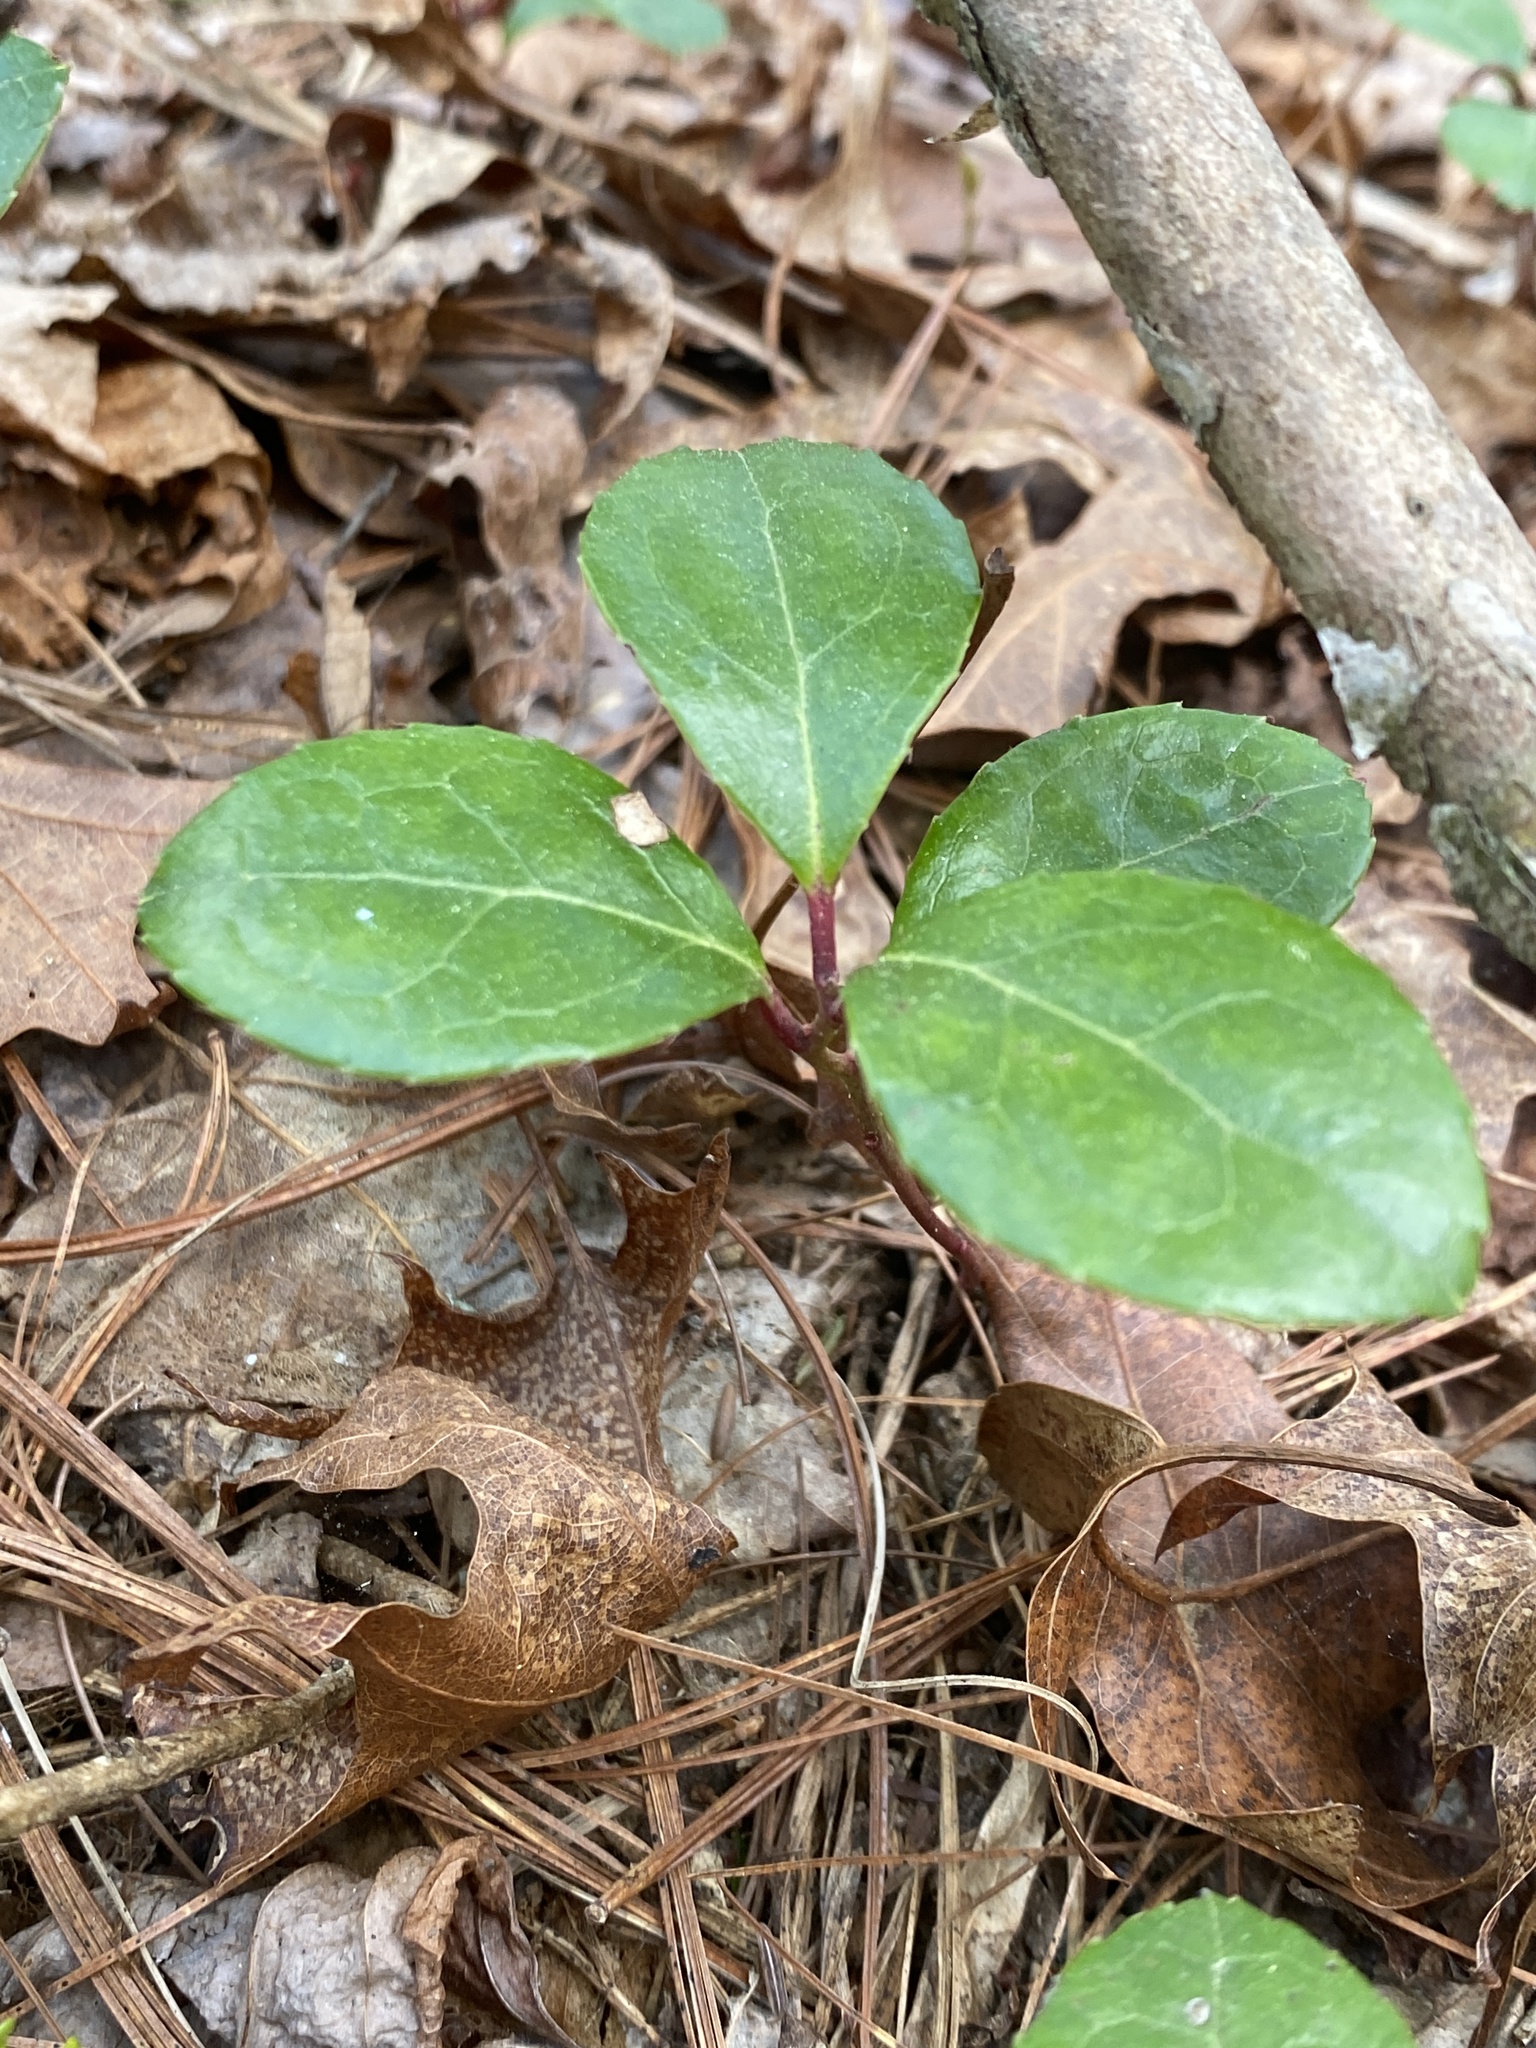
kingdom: Plantae
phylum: Tracheophyta
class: Magnoliopsida
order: Ericales
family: Ericaceae
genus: Gaultheria
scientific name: Gaultheria procumbens
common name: Checkerberry
